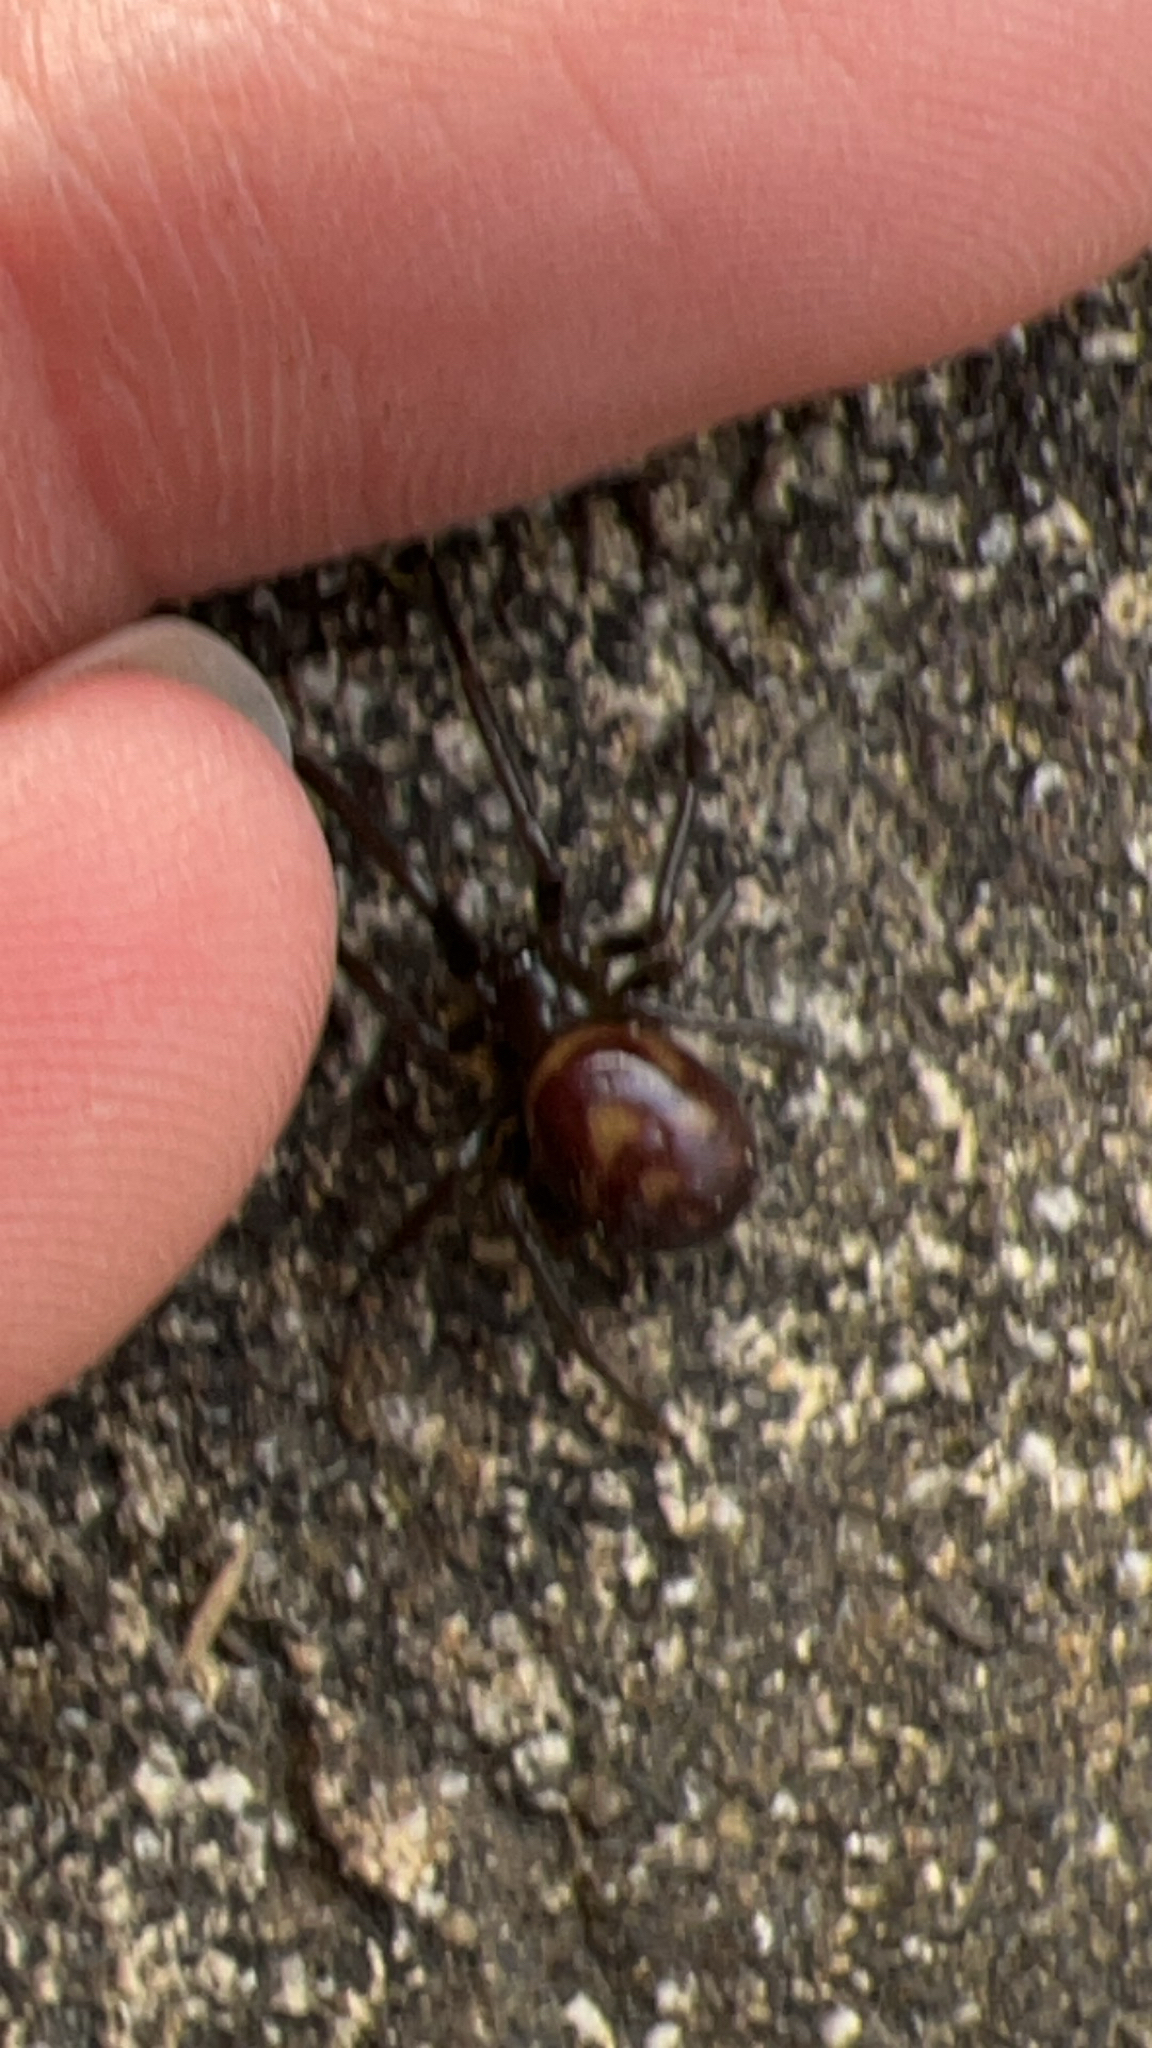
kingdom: Animalia
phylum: Arthropoda
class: Arachnida
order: Araneae
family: Theridiidae
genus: Steatoda
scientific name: Steatoda grossa
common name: False black widow
